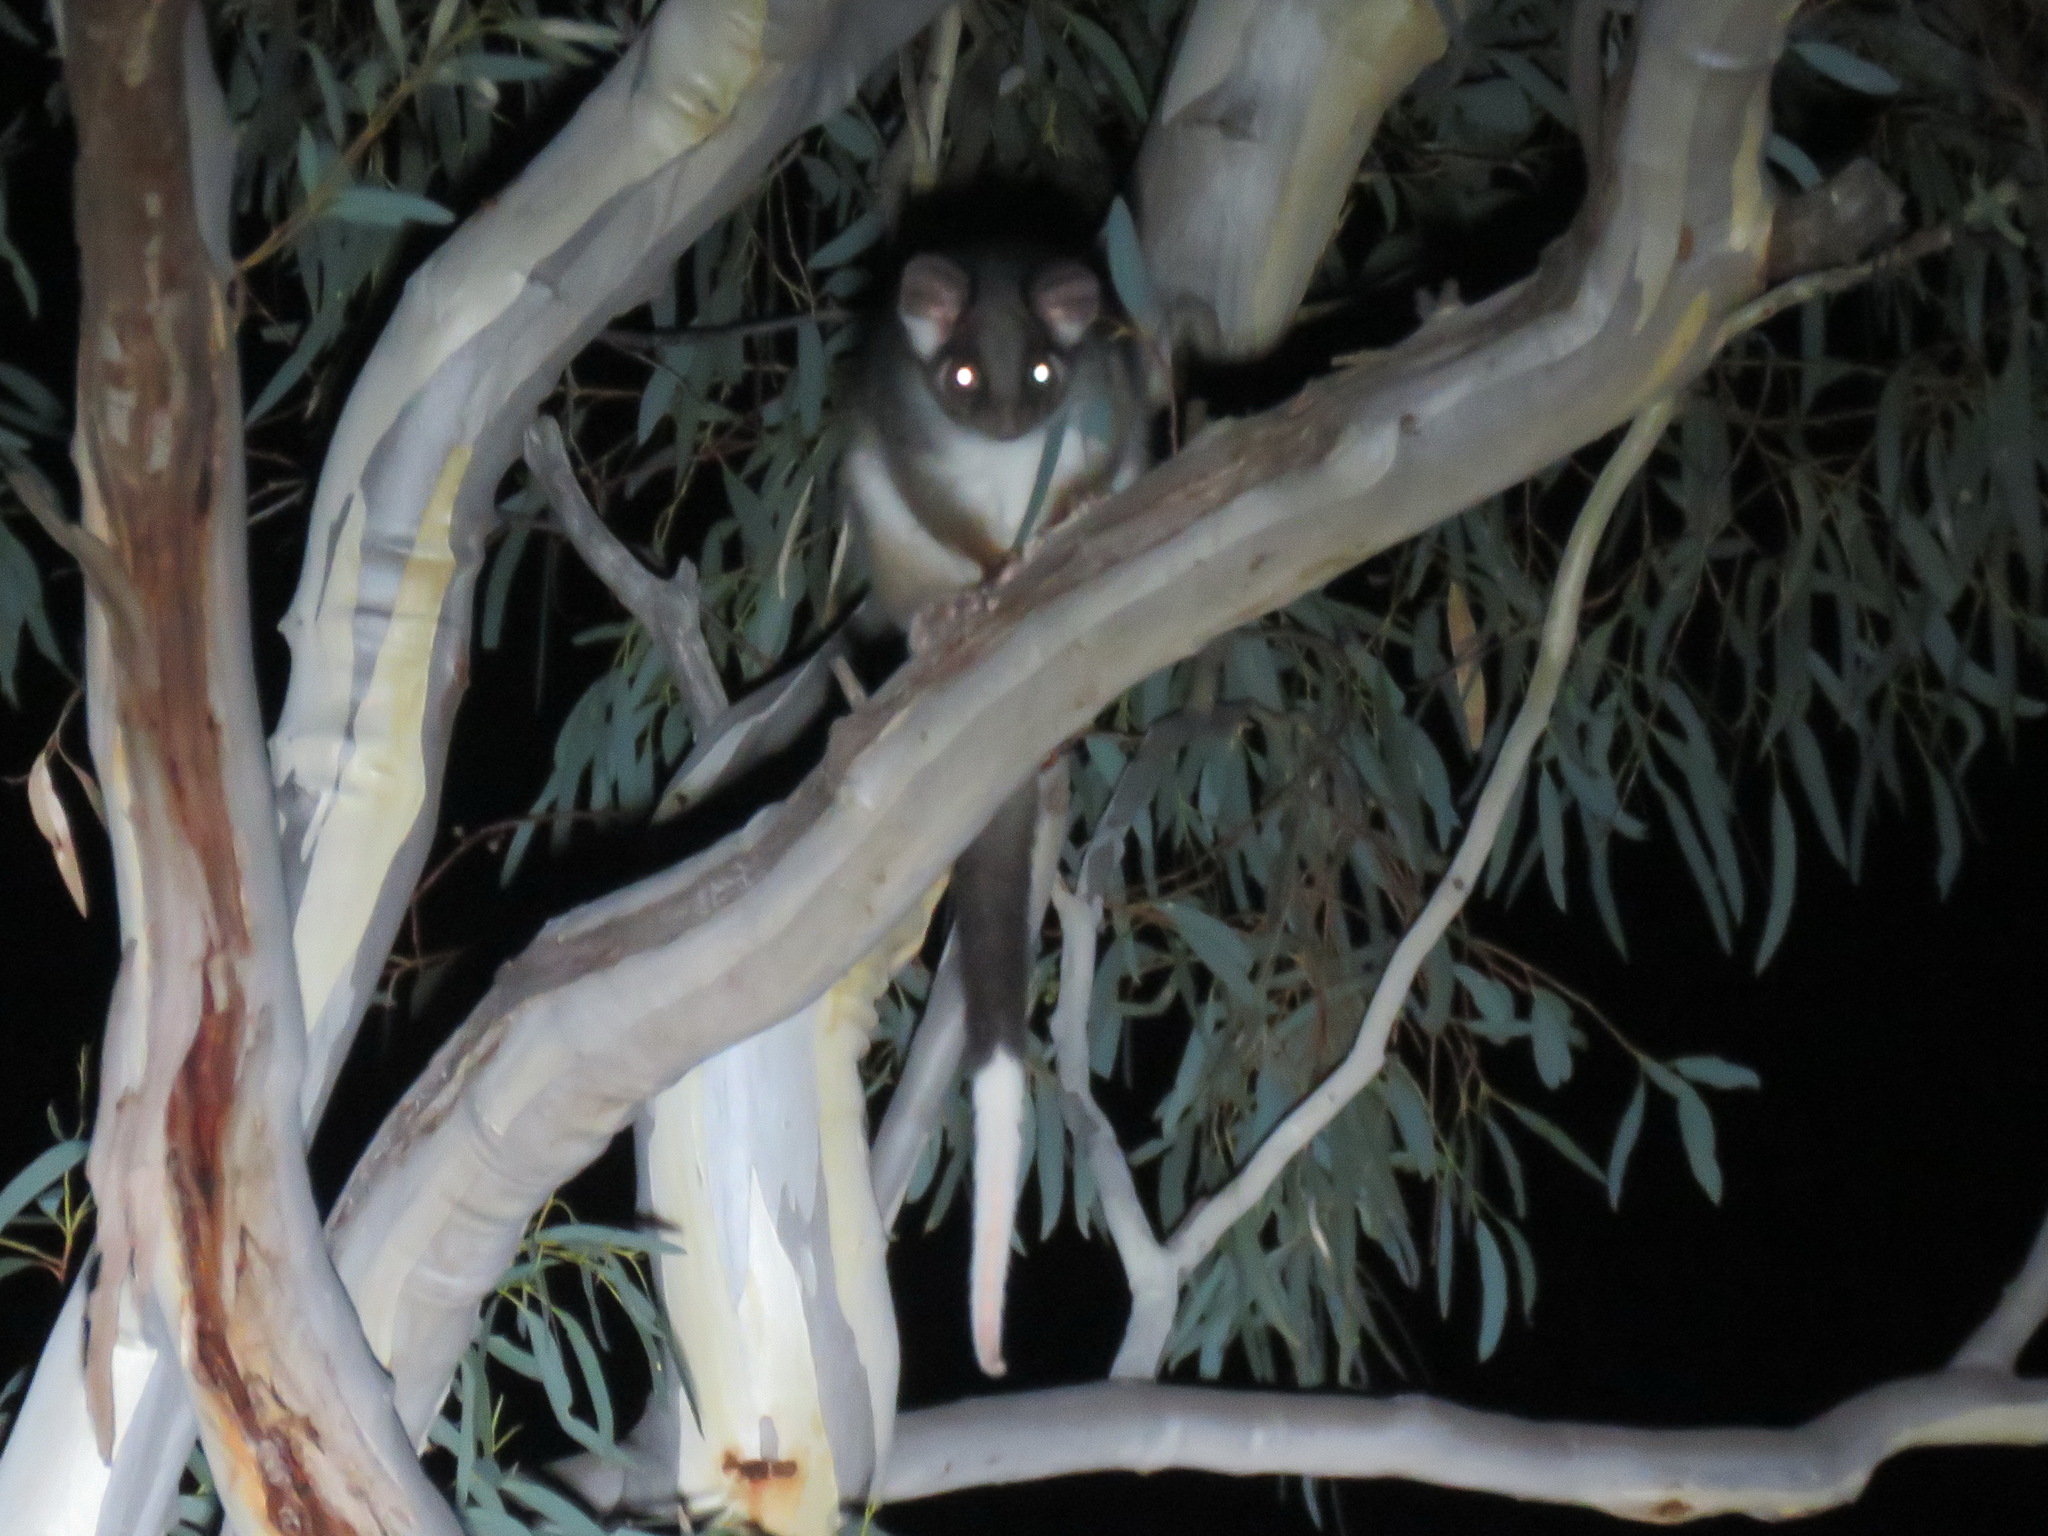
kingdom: Animalia
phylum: Chordata
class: Mammalia
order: Diprotodontia
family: Pseudocheiridae
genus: Pseudocheirus
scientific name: Pseudocheirus peregrinus
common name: Common ringtail possum
